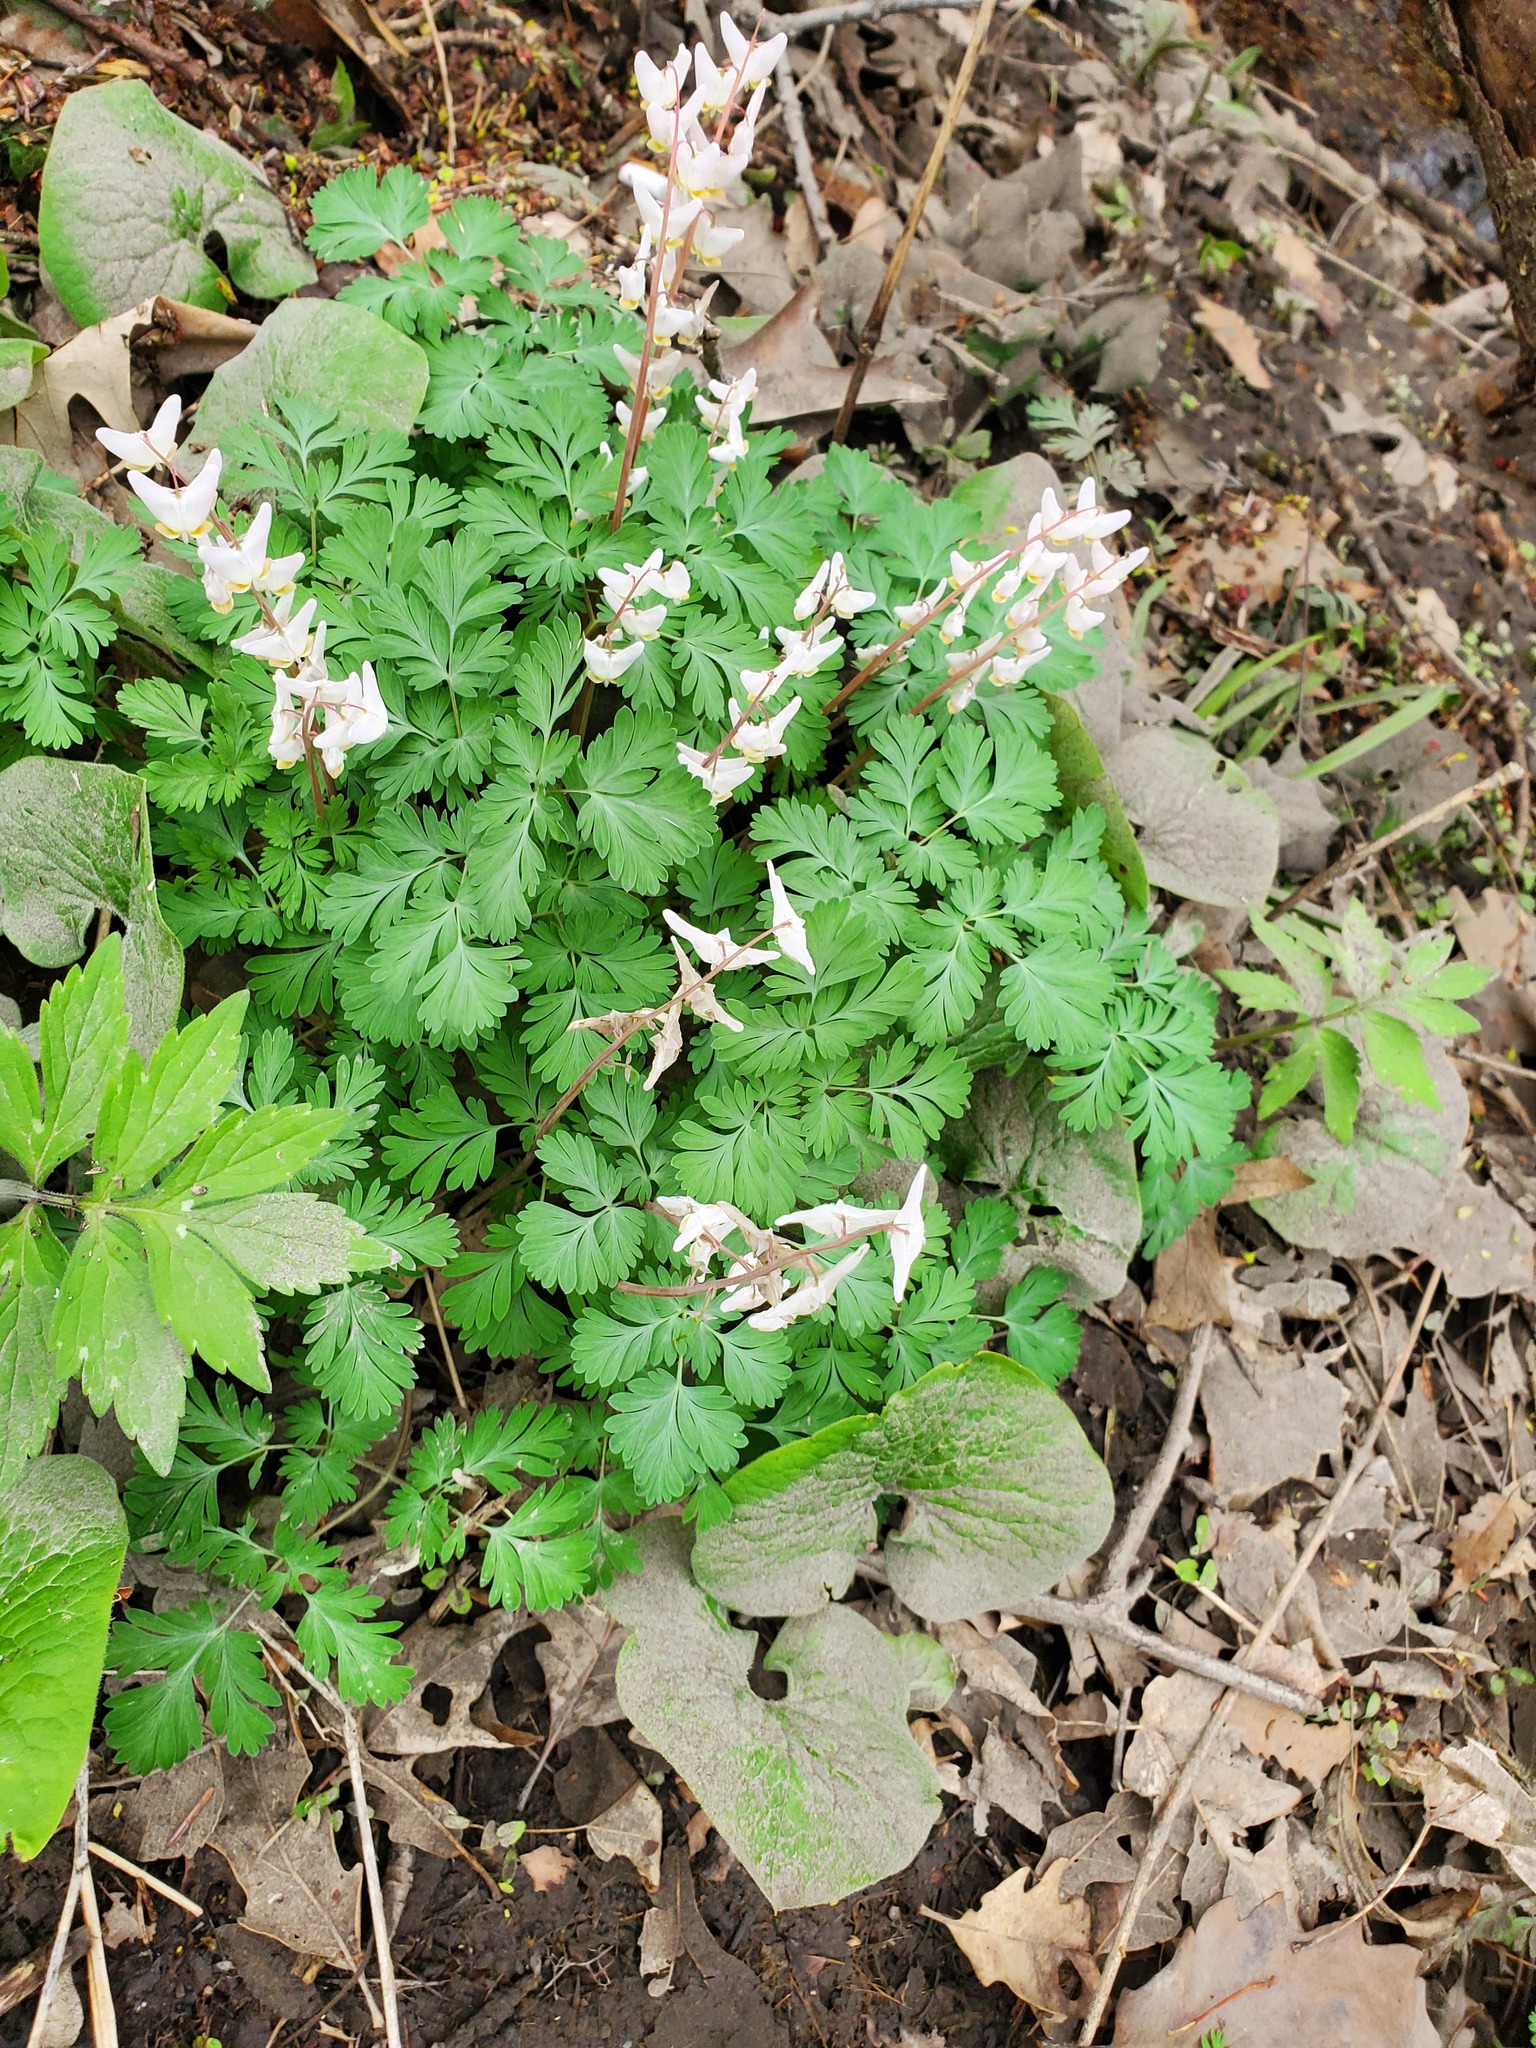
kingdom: Plantae
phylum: Tracheophyta
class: Magnoliopsida
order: Ranunculales
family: Papaveraceae
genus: Dicentra
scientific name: Dicentra cucullaria
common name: Dutchman's breeches
